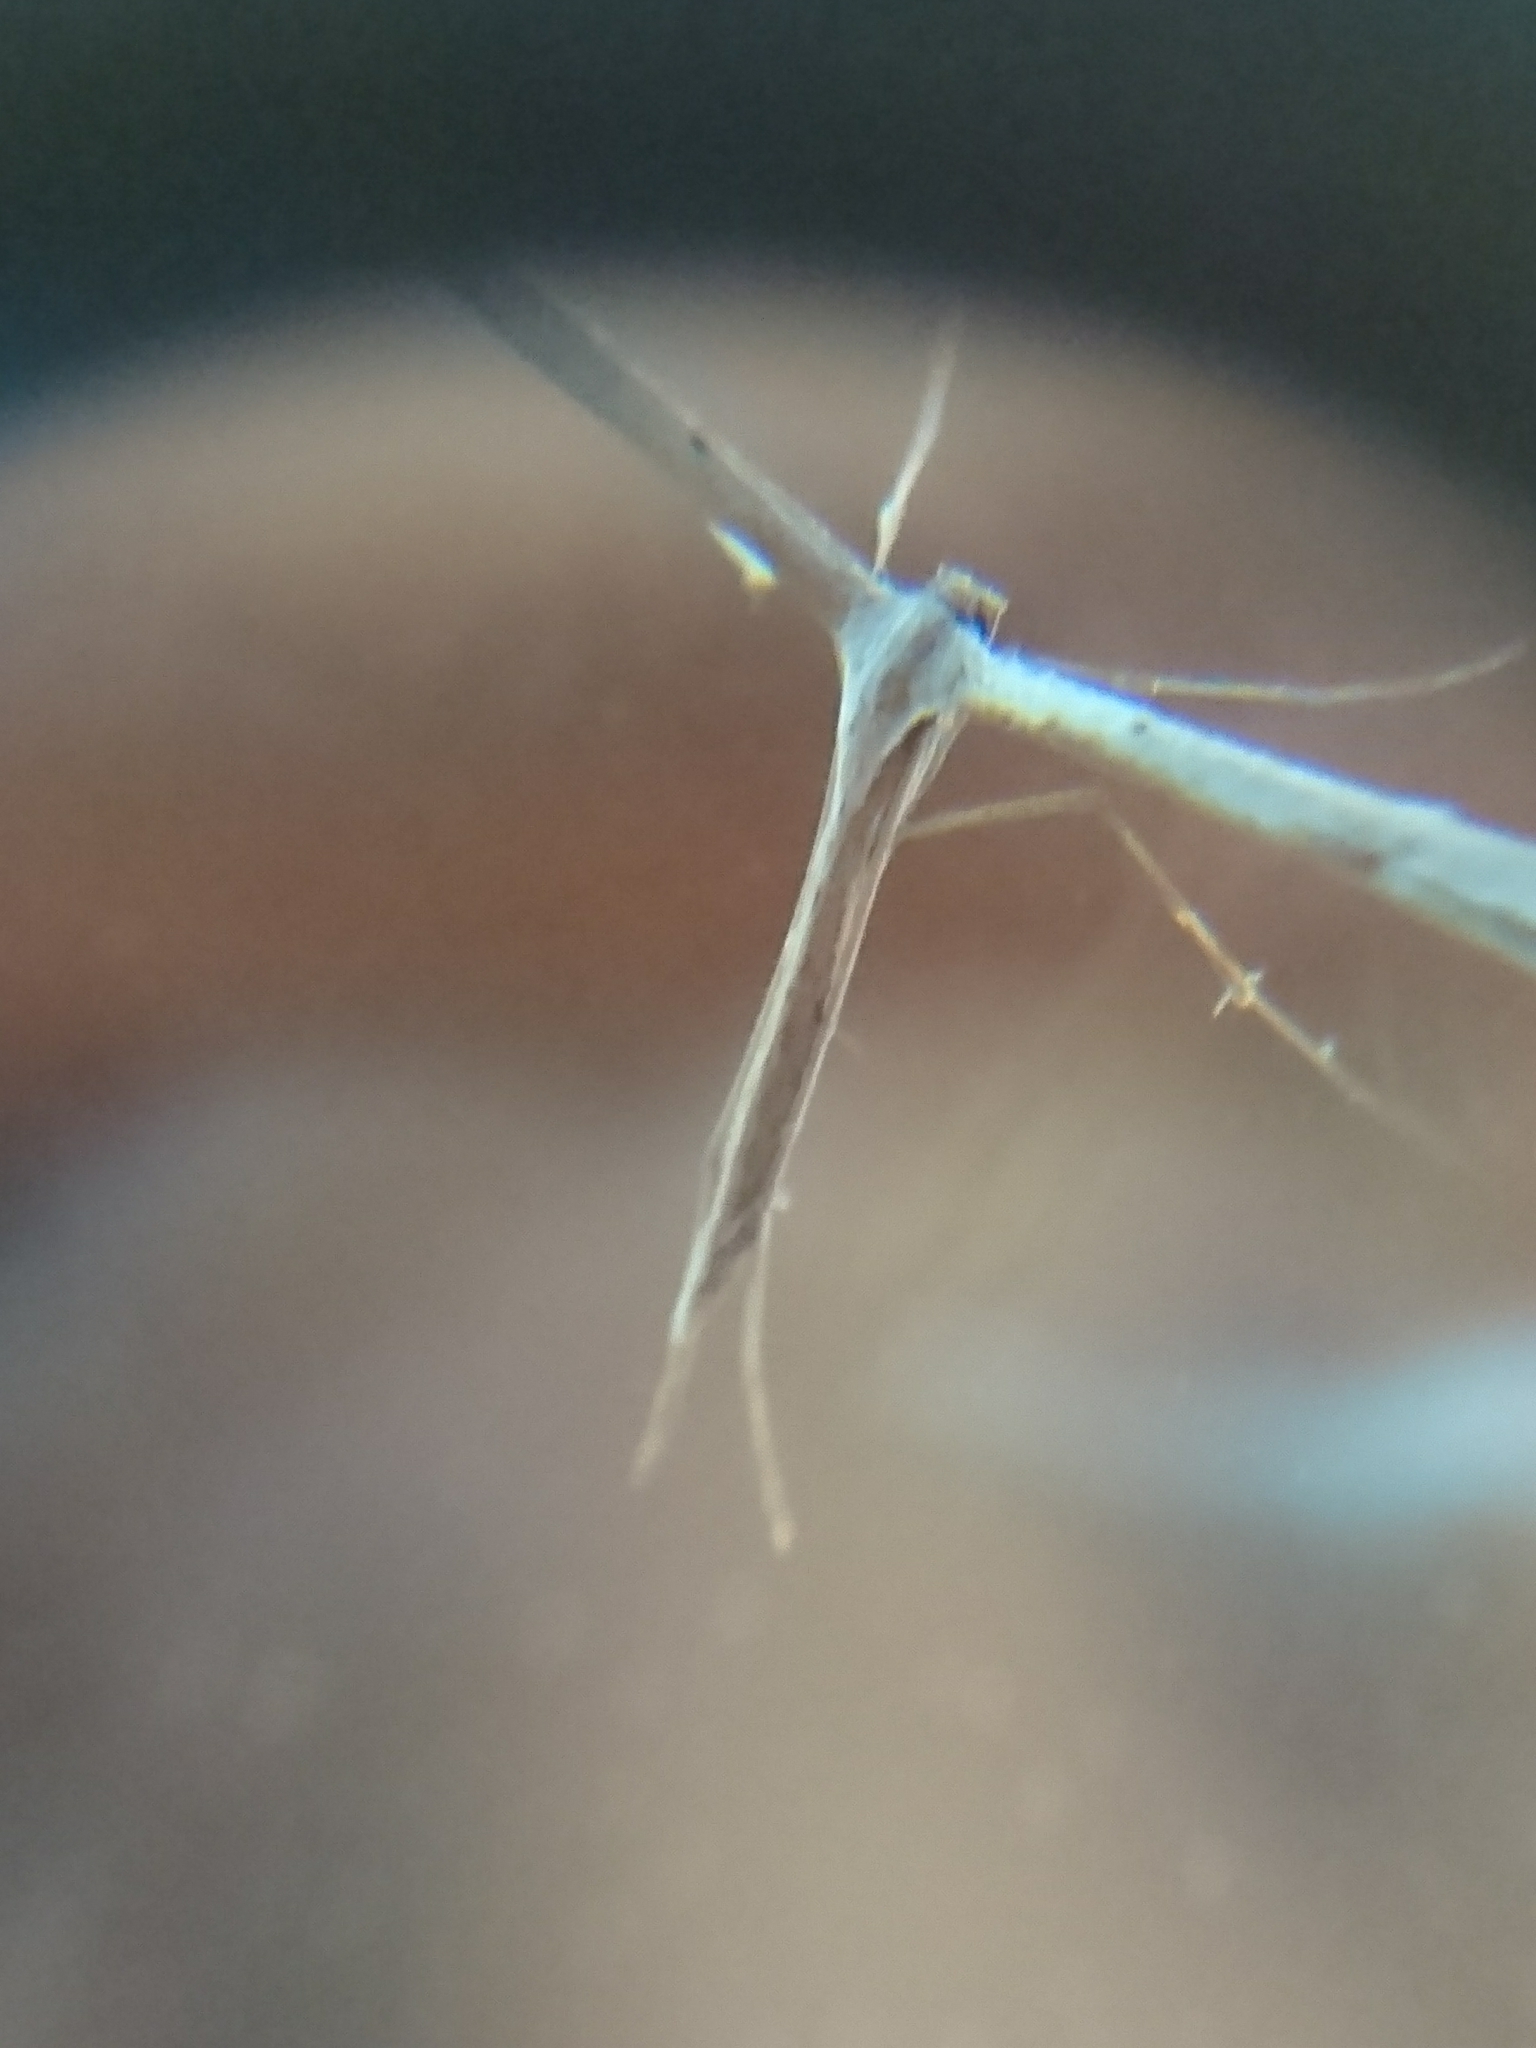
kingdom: Animalia
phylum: Arthropoda
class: Insecta
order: Lepidoptera
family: Pterophoridae
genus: Emmelina
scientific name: Emmelina monodactyla
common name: Common plume
